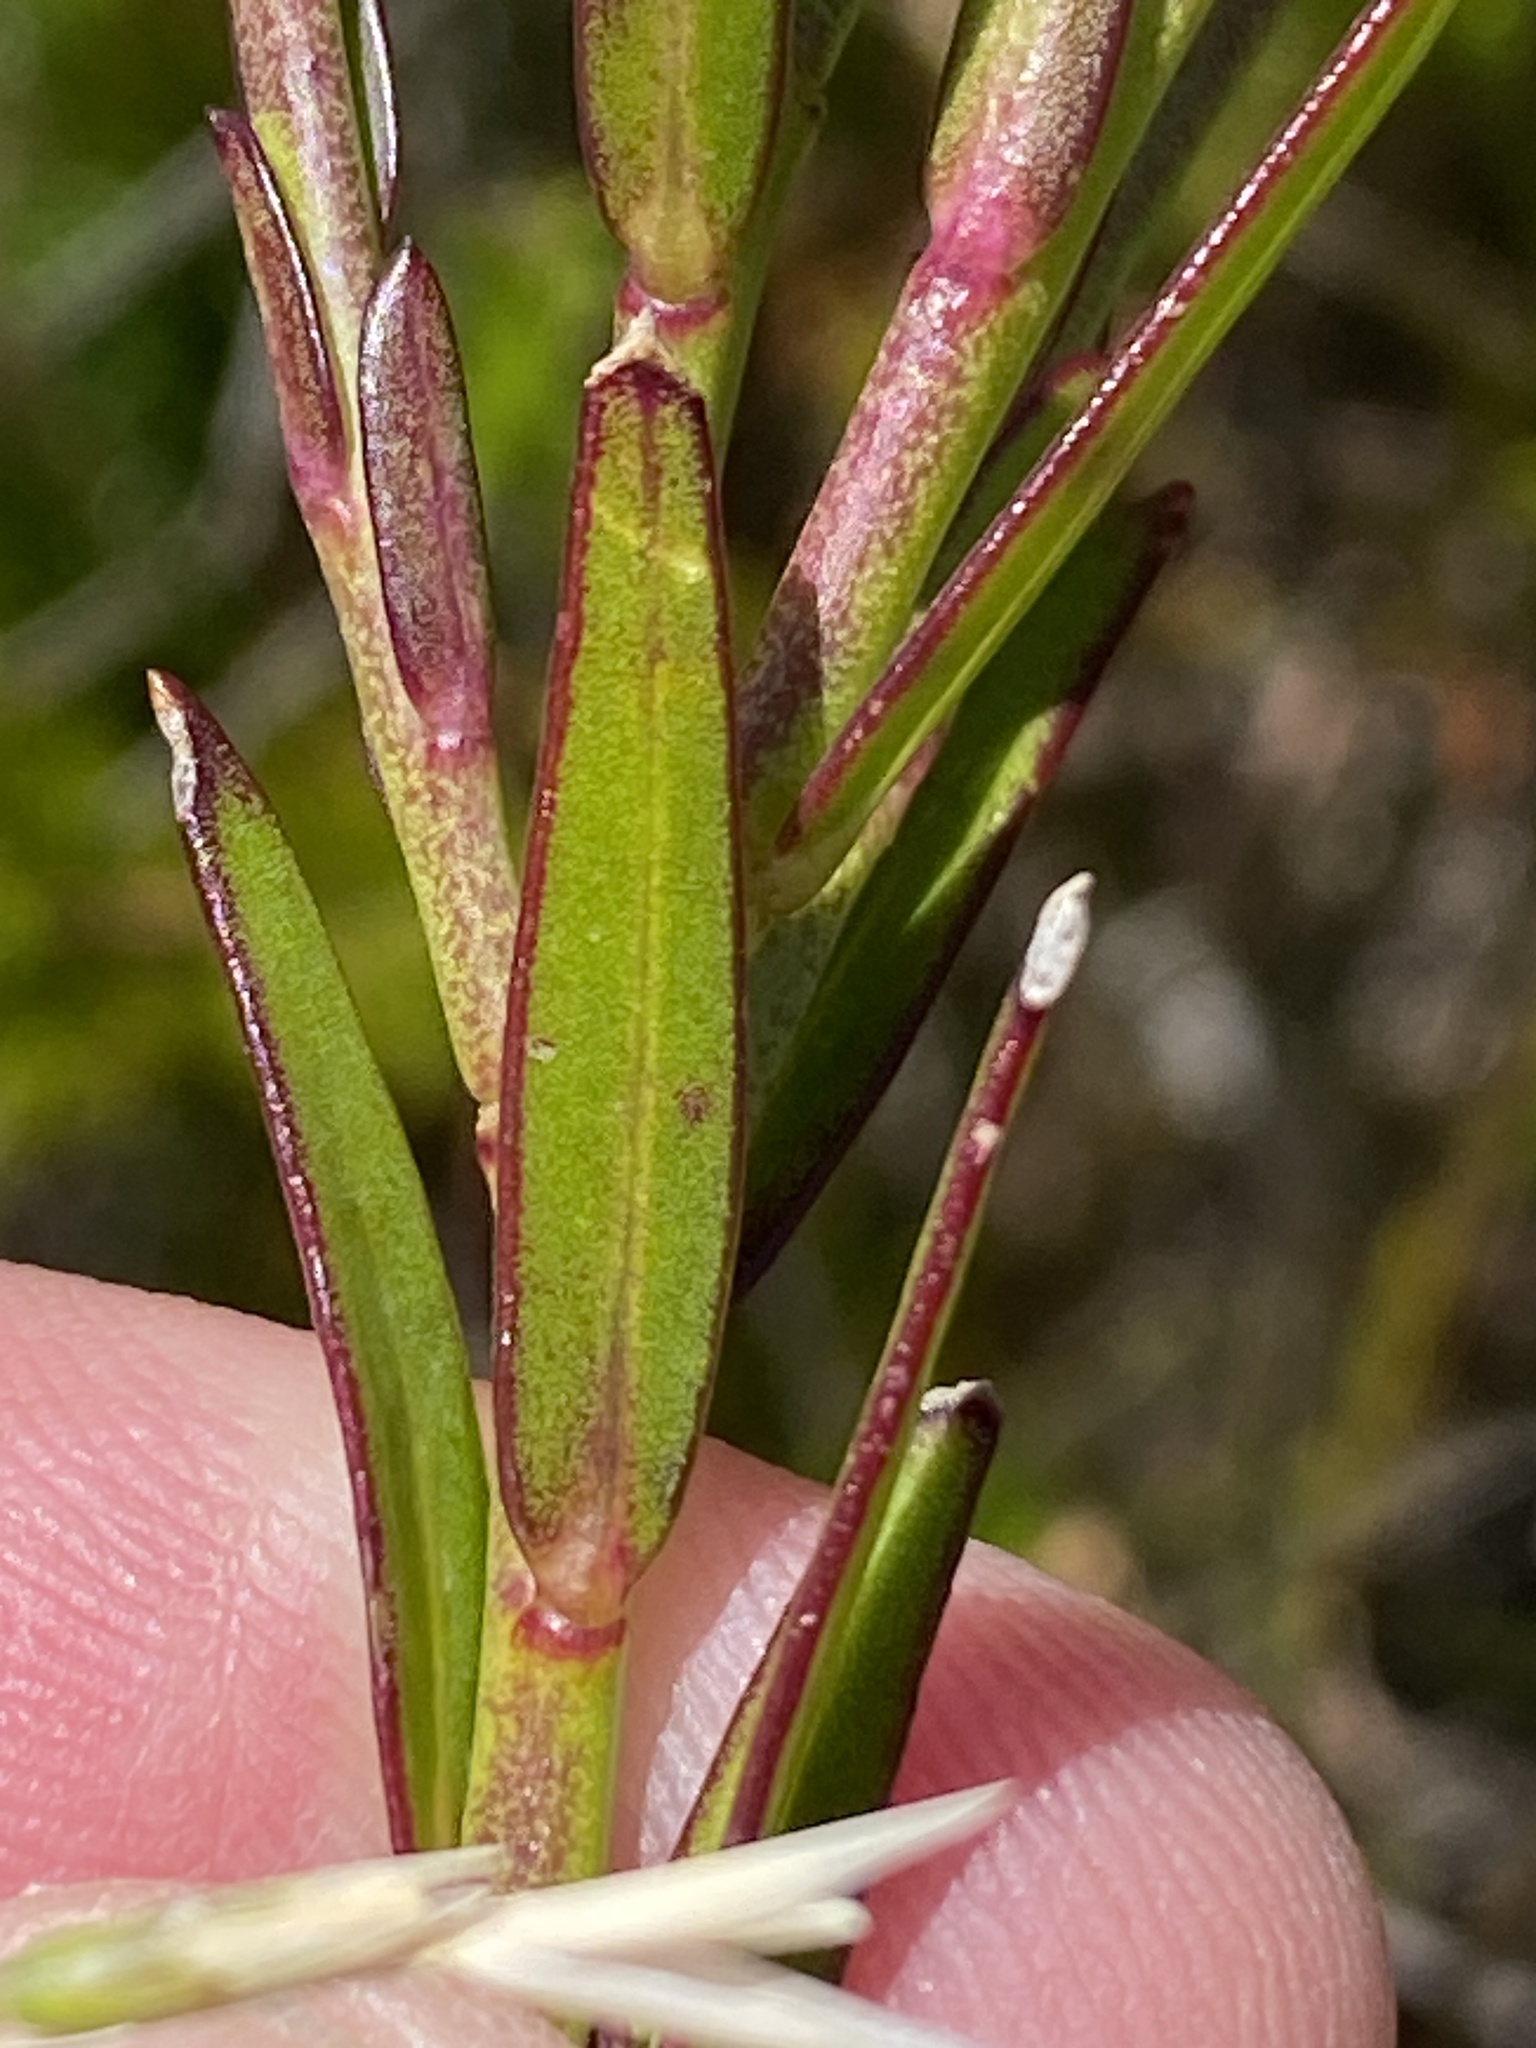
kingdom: Plantae
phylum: Tracheophyta
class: Magnoliopsida
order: Fabales
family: Polygalaceae
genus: Polygala
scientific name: Polygala bracteolata
